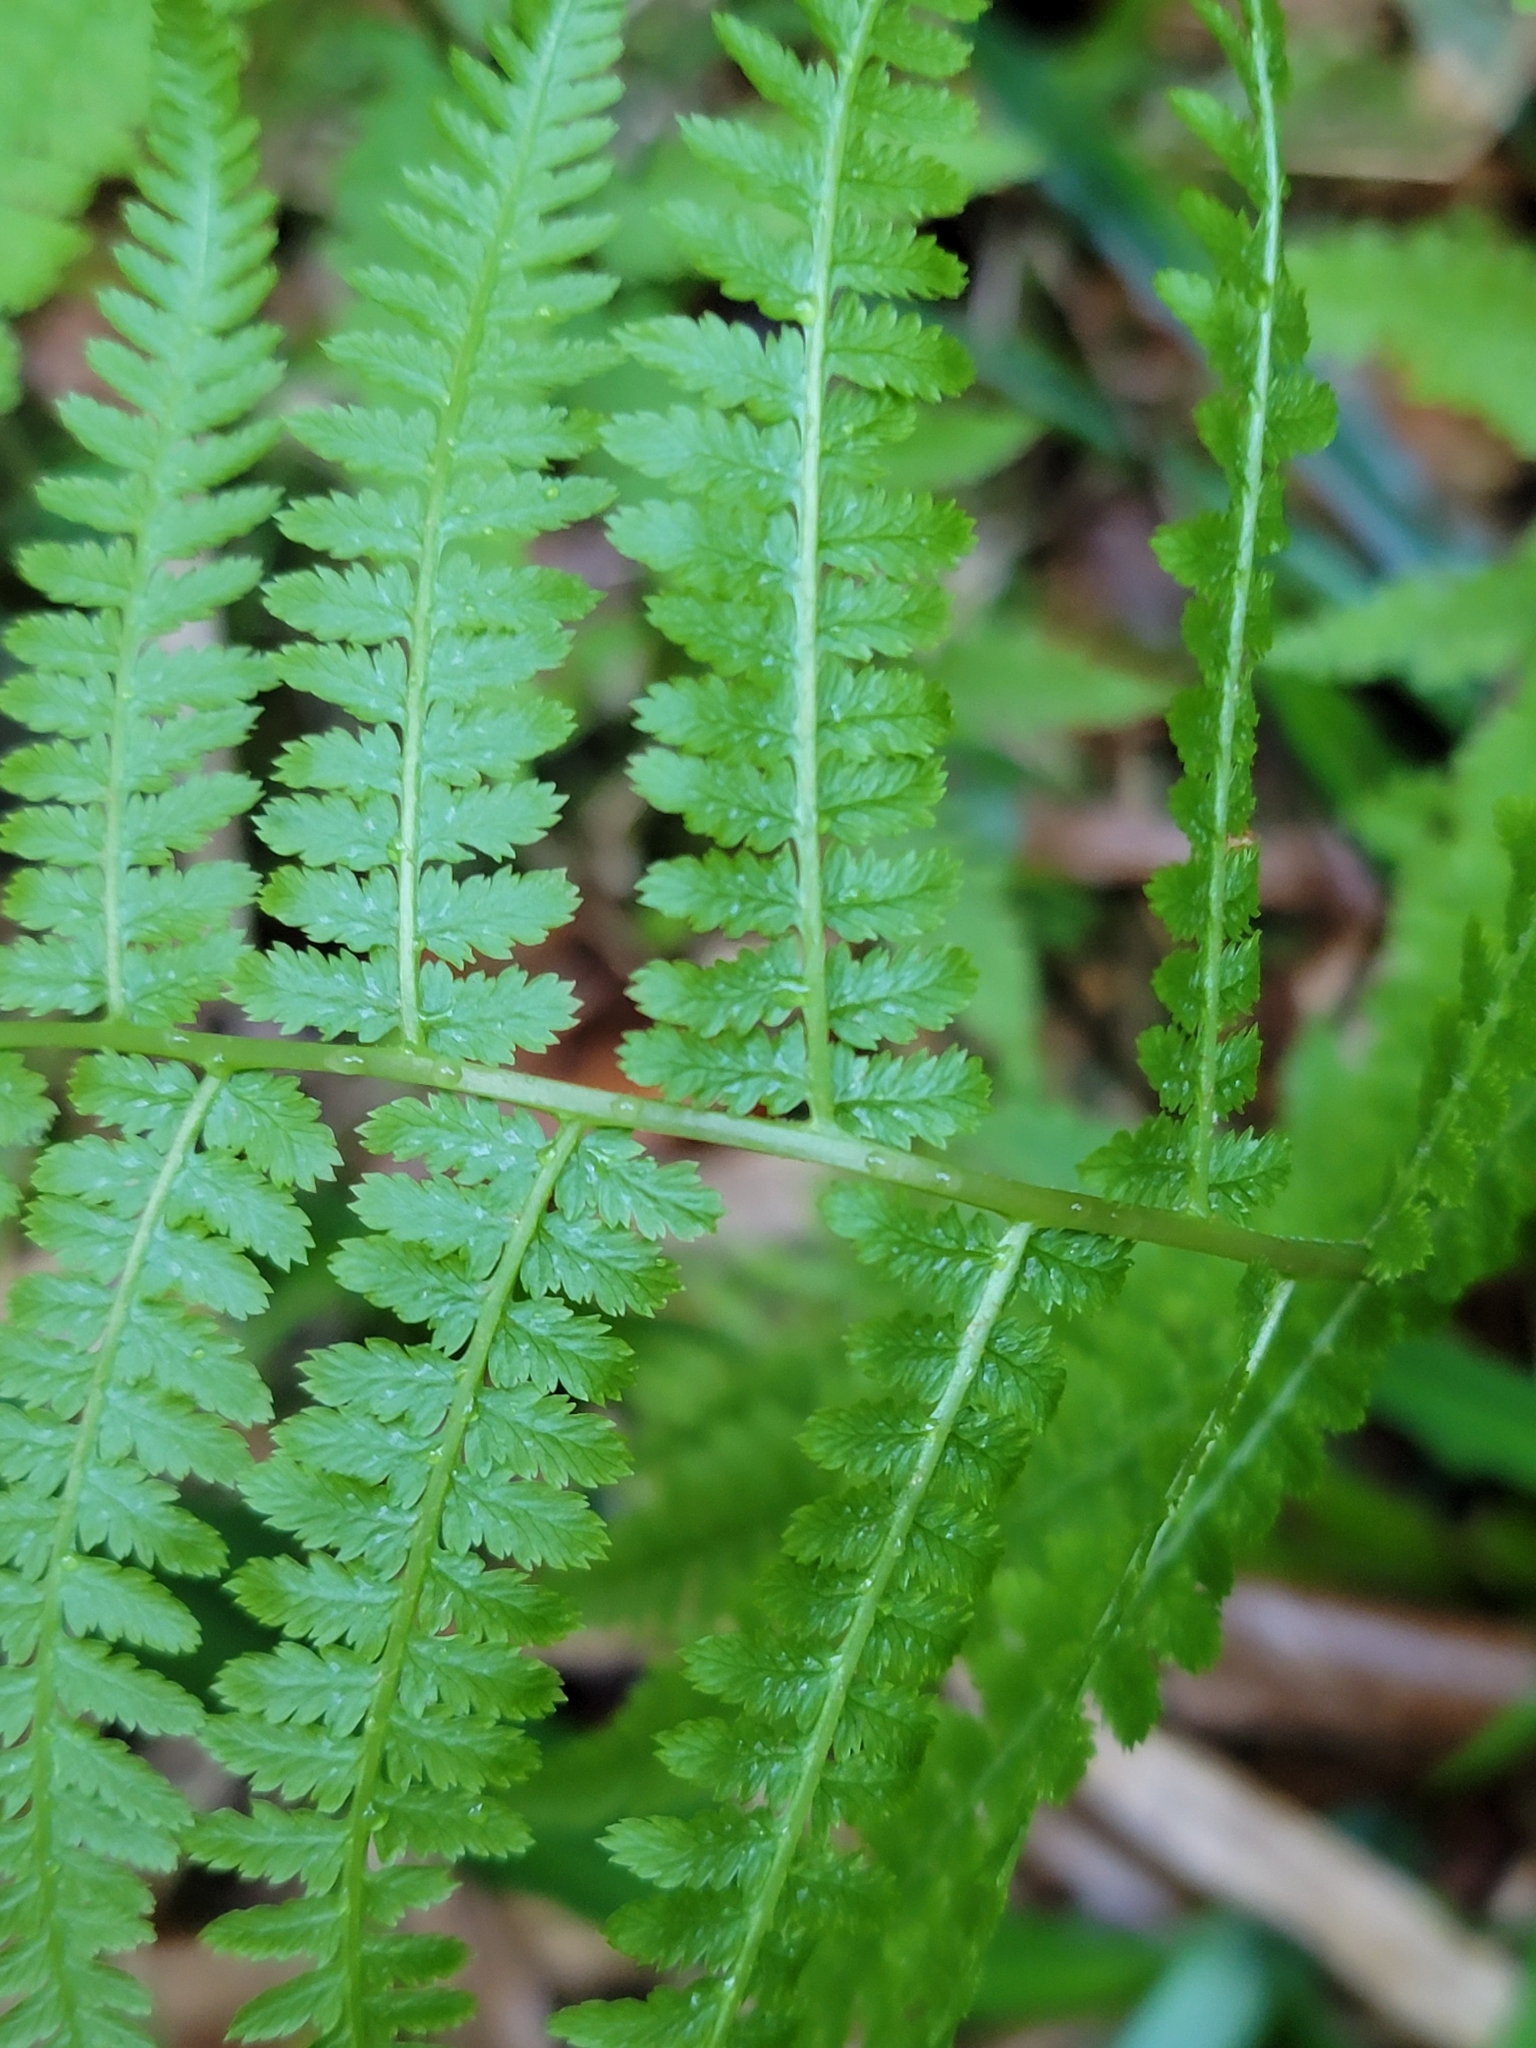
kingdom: Plantae
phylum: Tracheophyta
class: Polypodiopsida
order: Polypodiales
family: Athyriaceae
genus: Athyrium
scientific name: Athyrium filix-femina
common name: Lady fern
